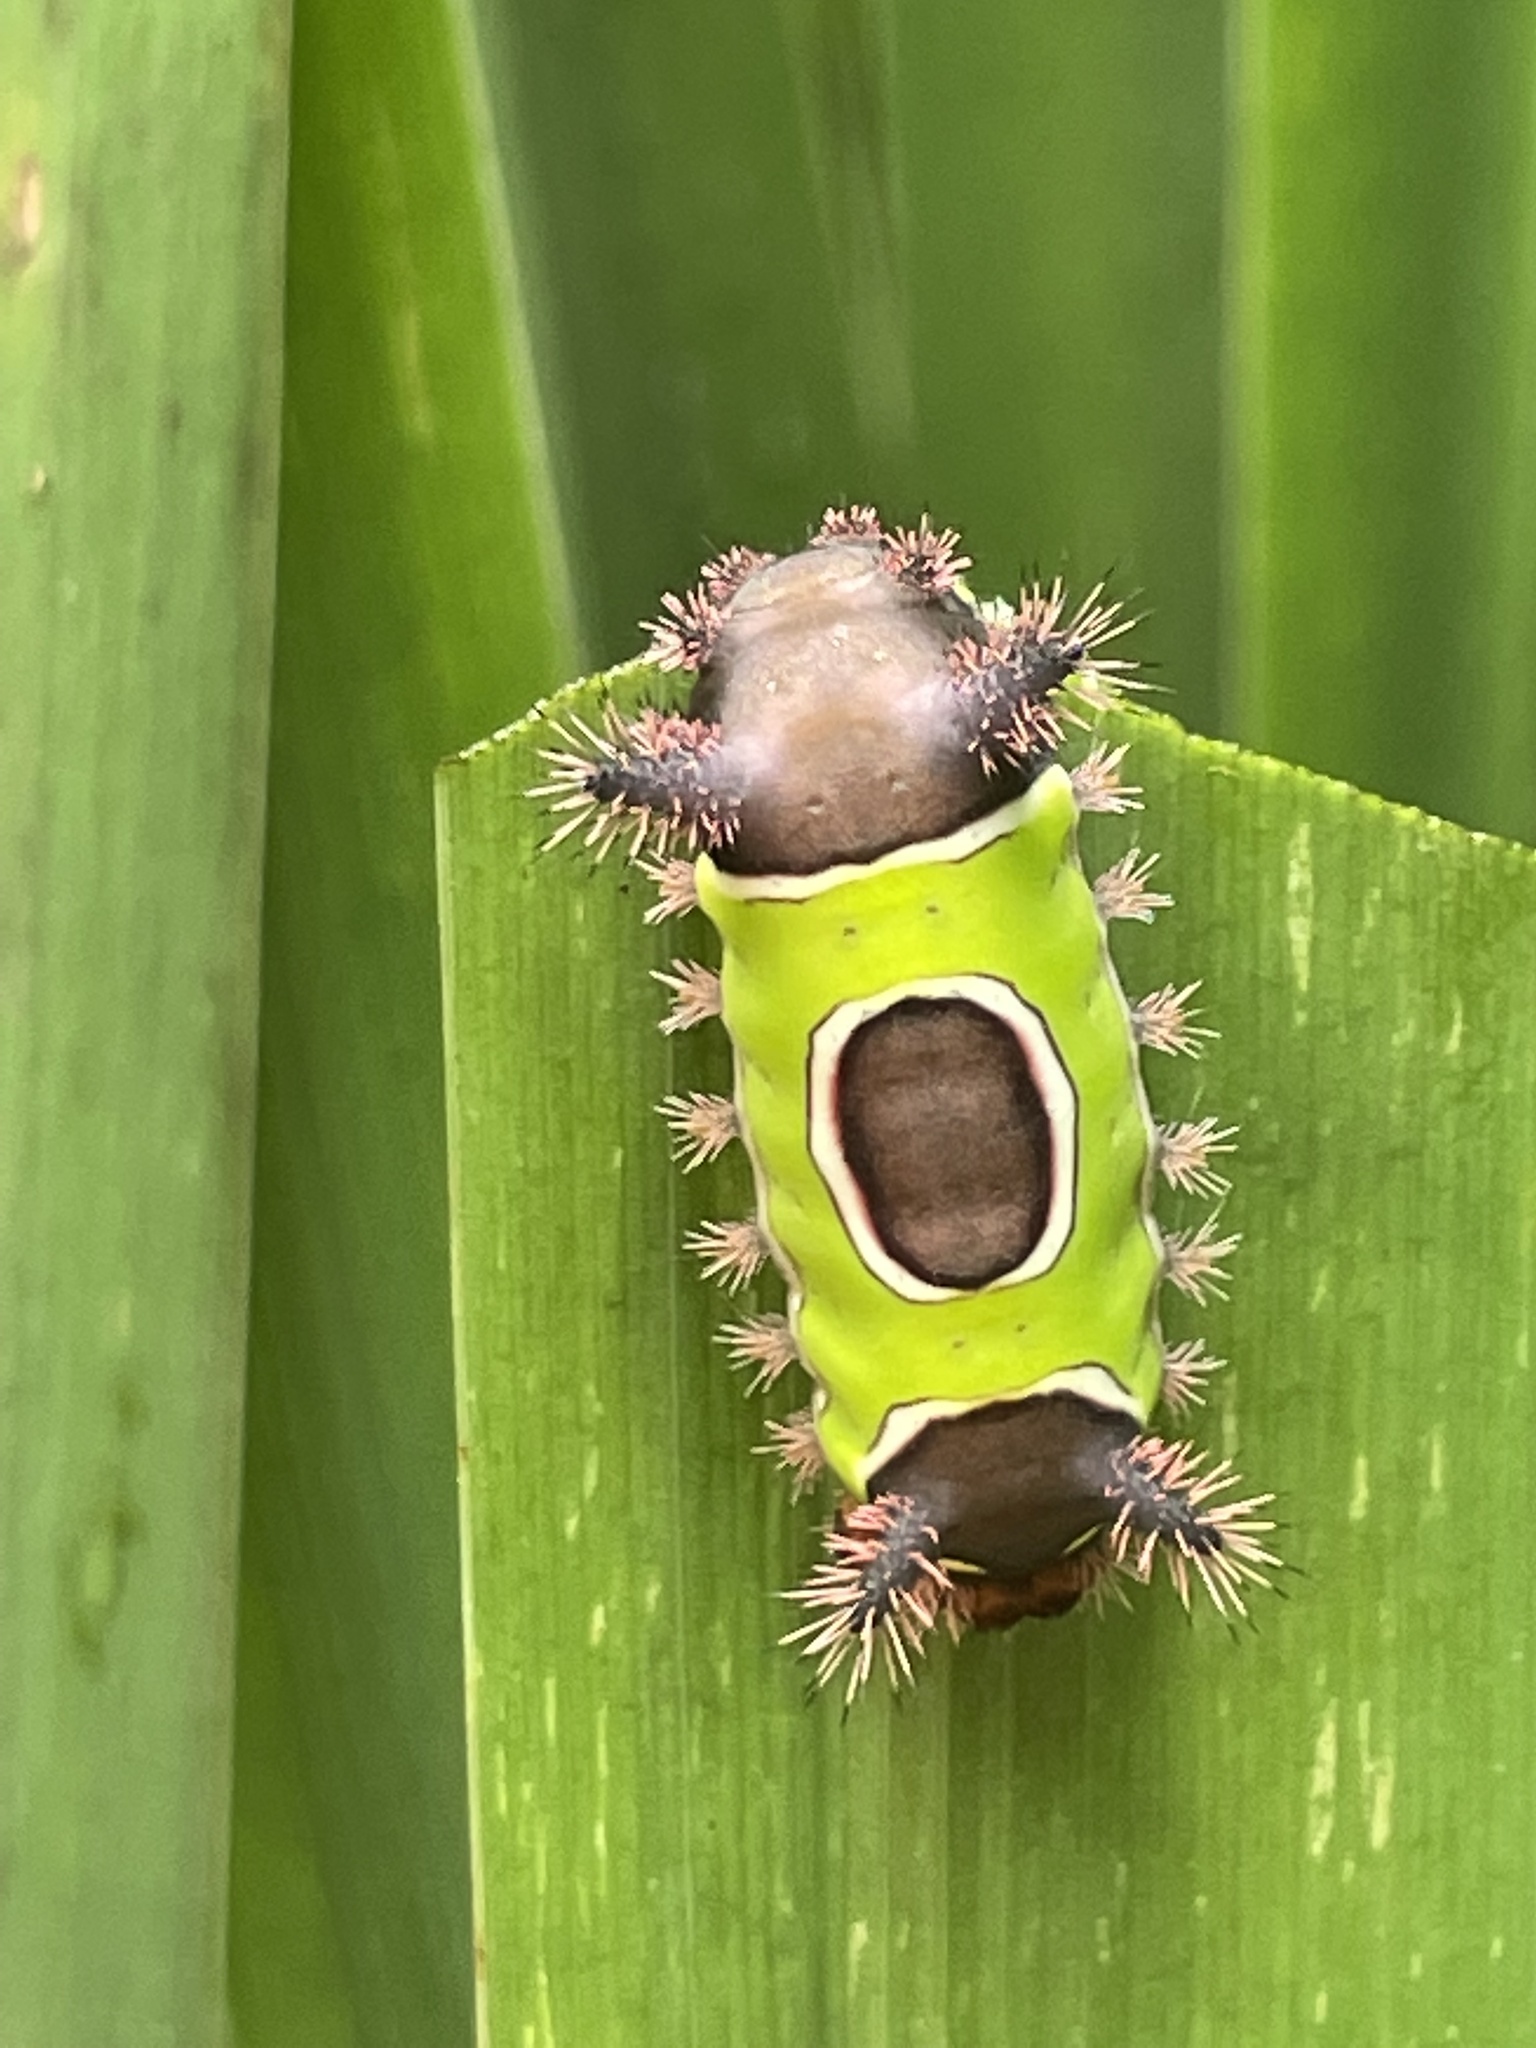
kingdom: Animalia
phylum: Arthropoda
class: Insecta
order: Lepidoptera
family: Limacodidae
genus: Acharia
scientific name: Acharia stimulea
